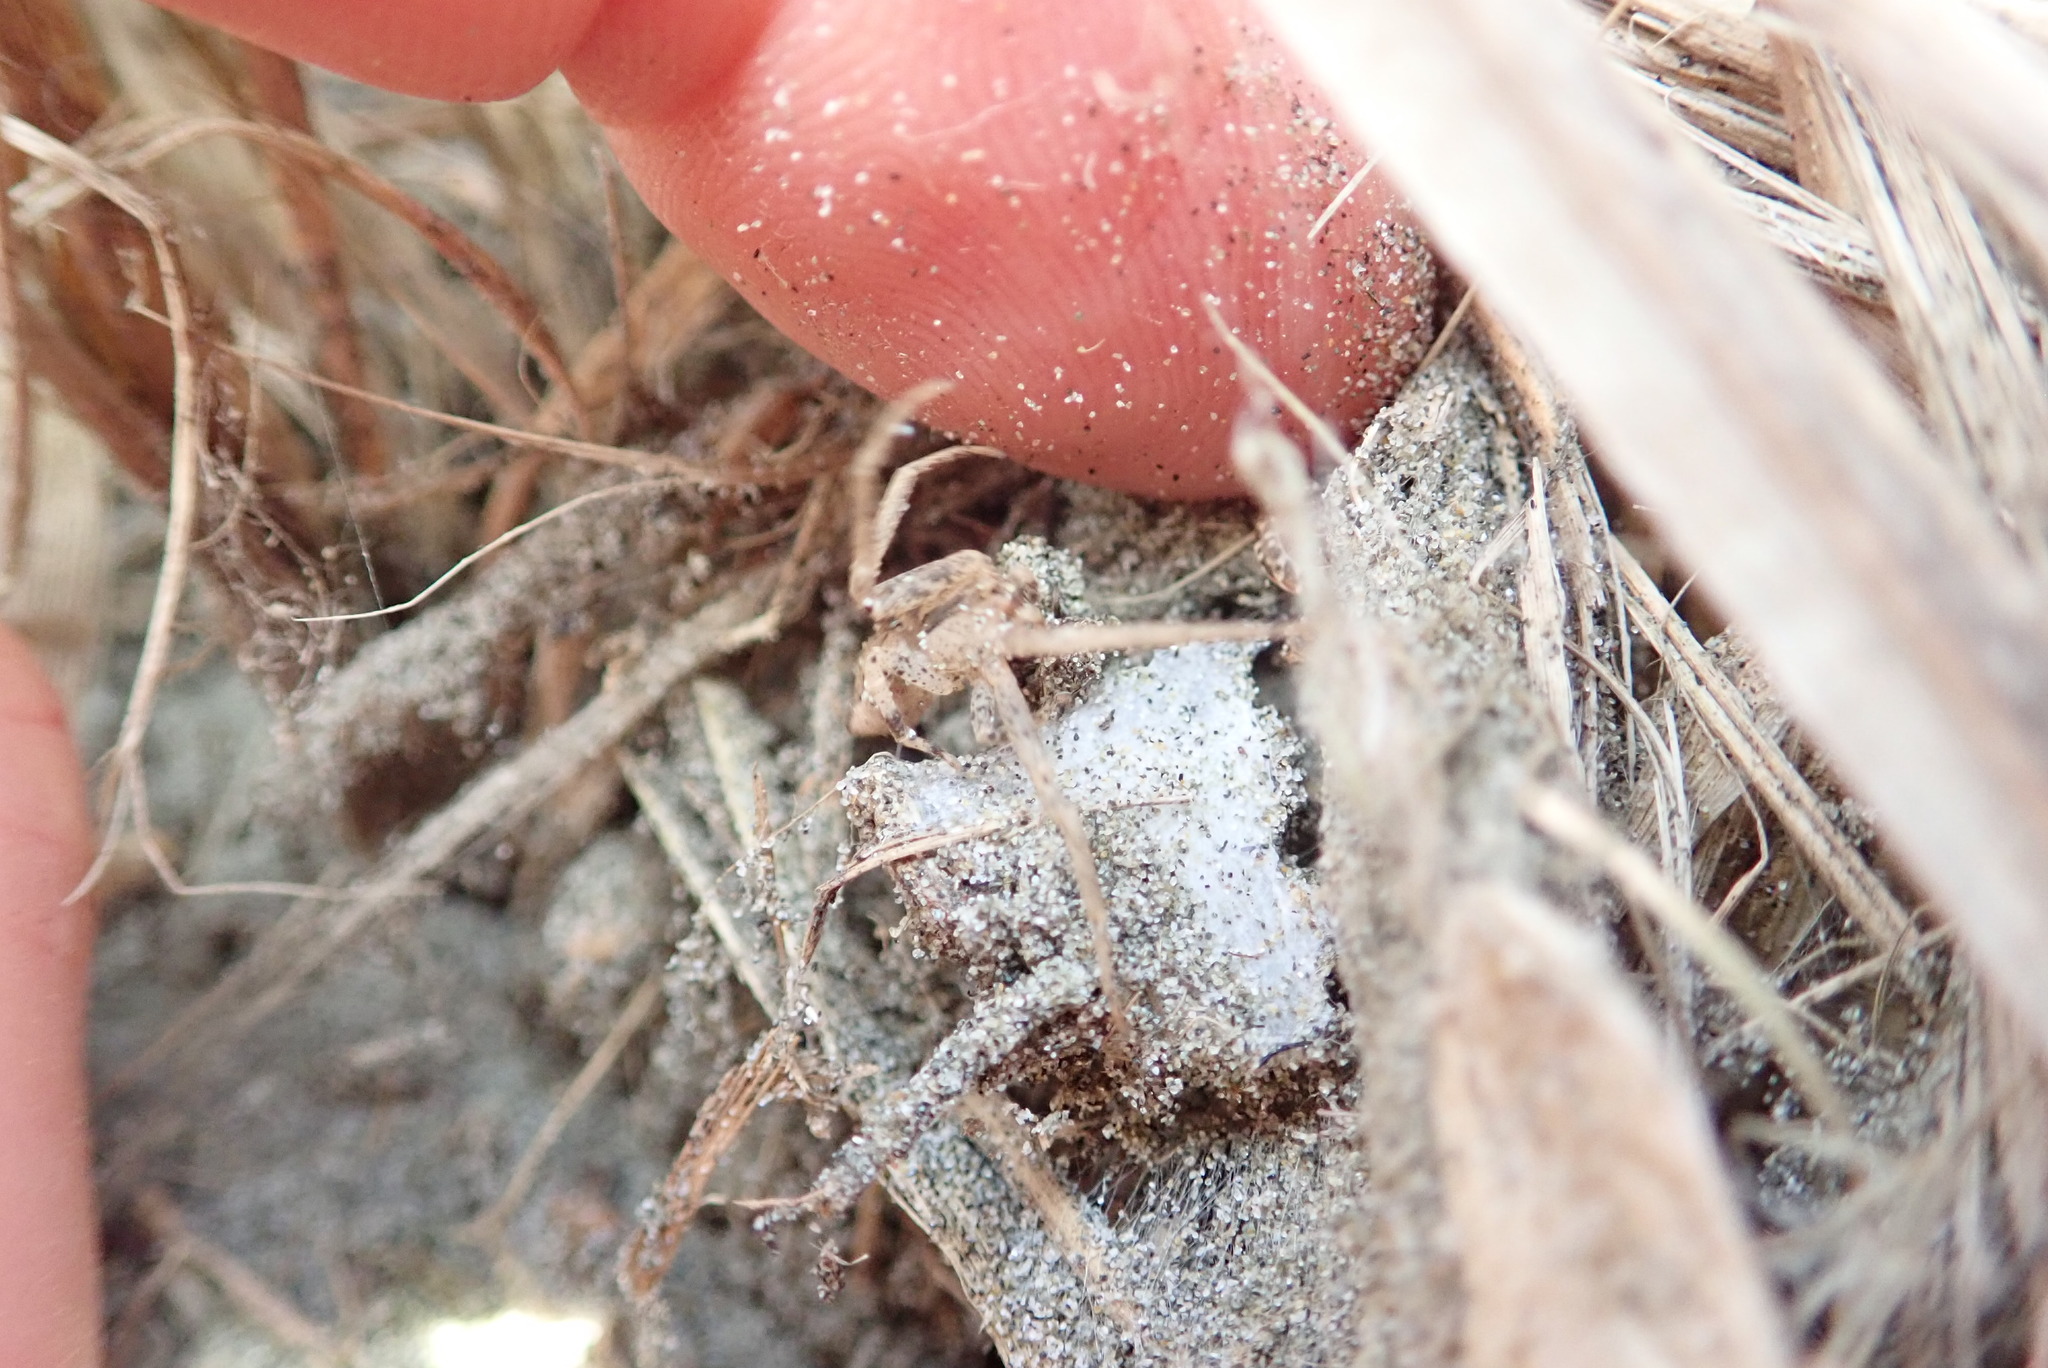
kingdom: Animalia
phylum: Arthropoda
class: Arachnida
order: Araneae
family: Thomisidae
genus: Sidymella
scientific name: Sidymella trapezia
